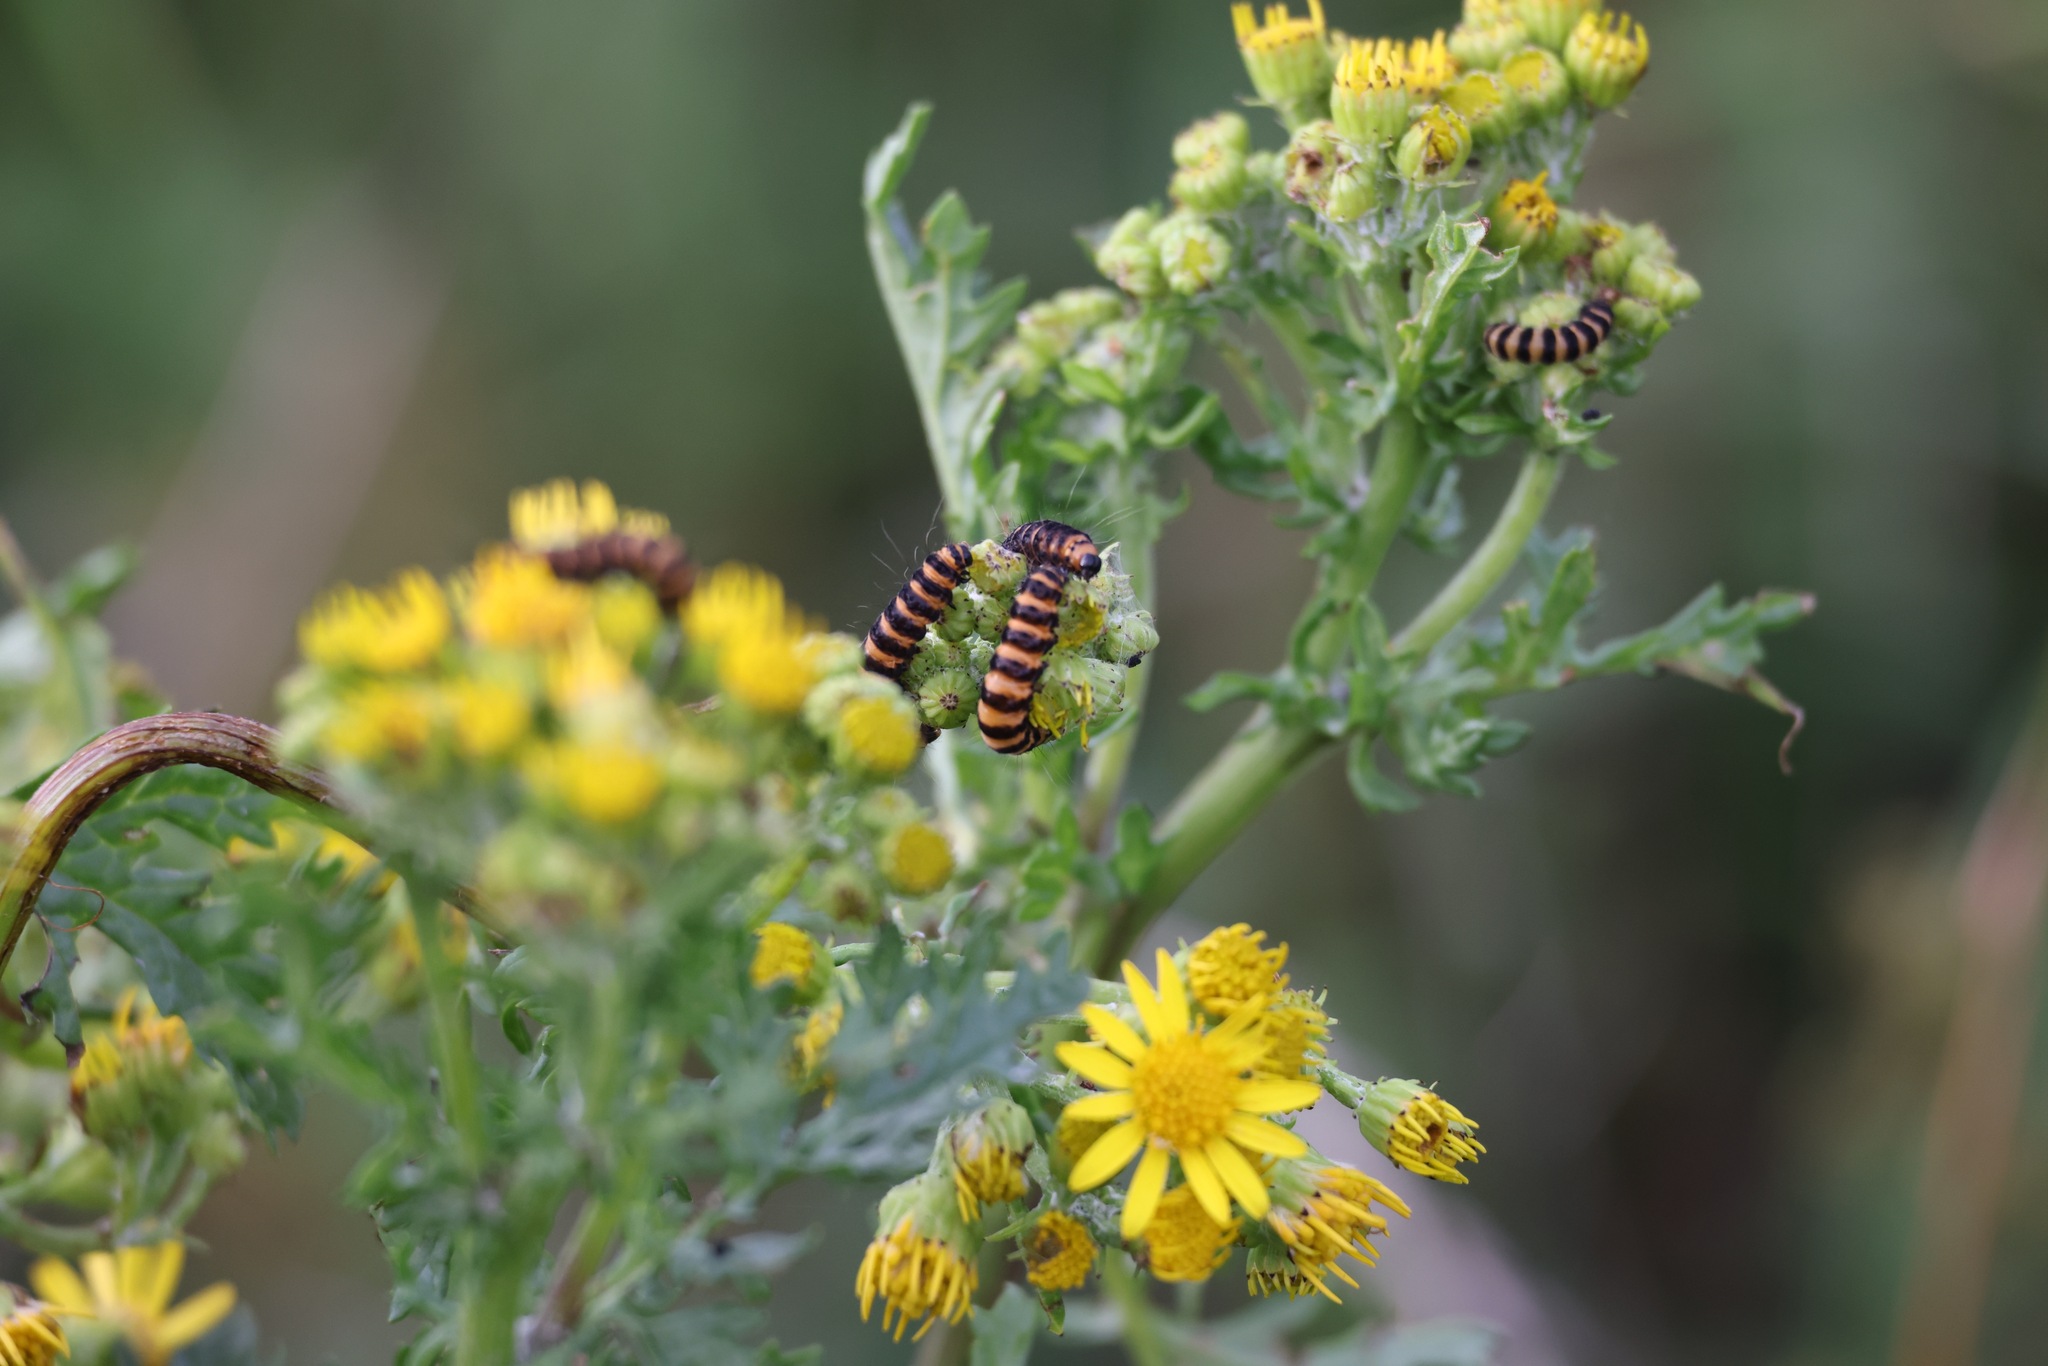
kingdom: Animalia
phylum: Arthropoda
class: Insecta
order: Lepidoptera
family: Erebidae
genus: Tyria
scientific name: Tyria jacobaeae
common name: Cinnabar
